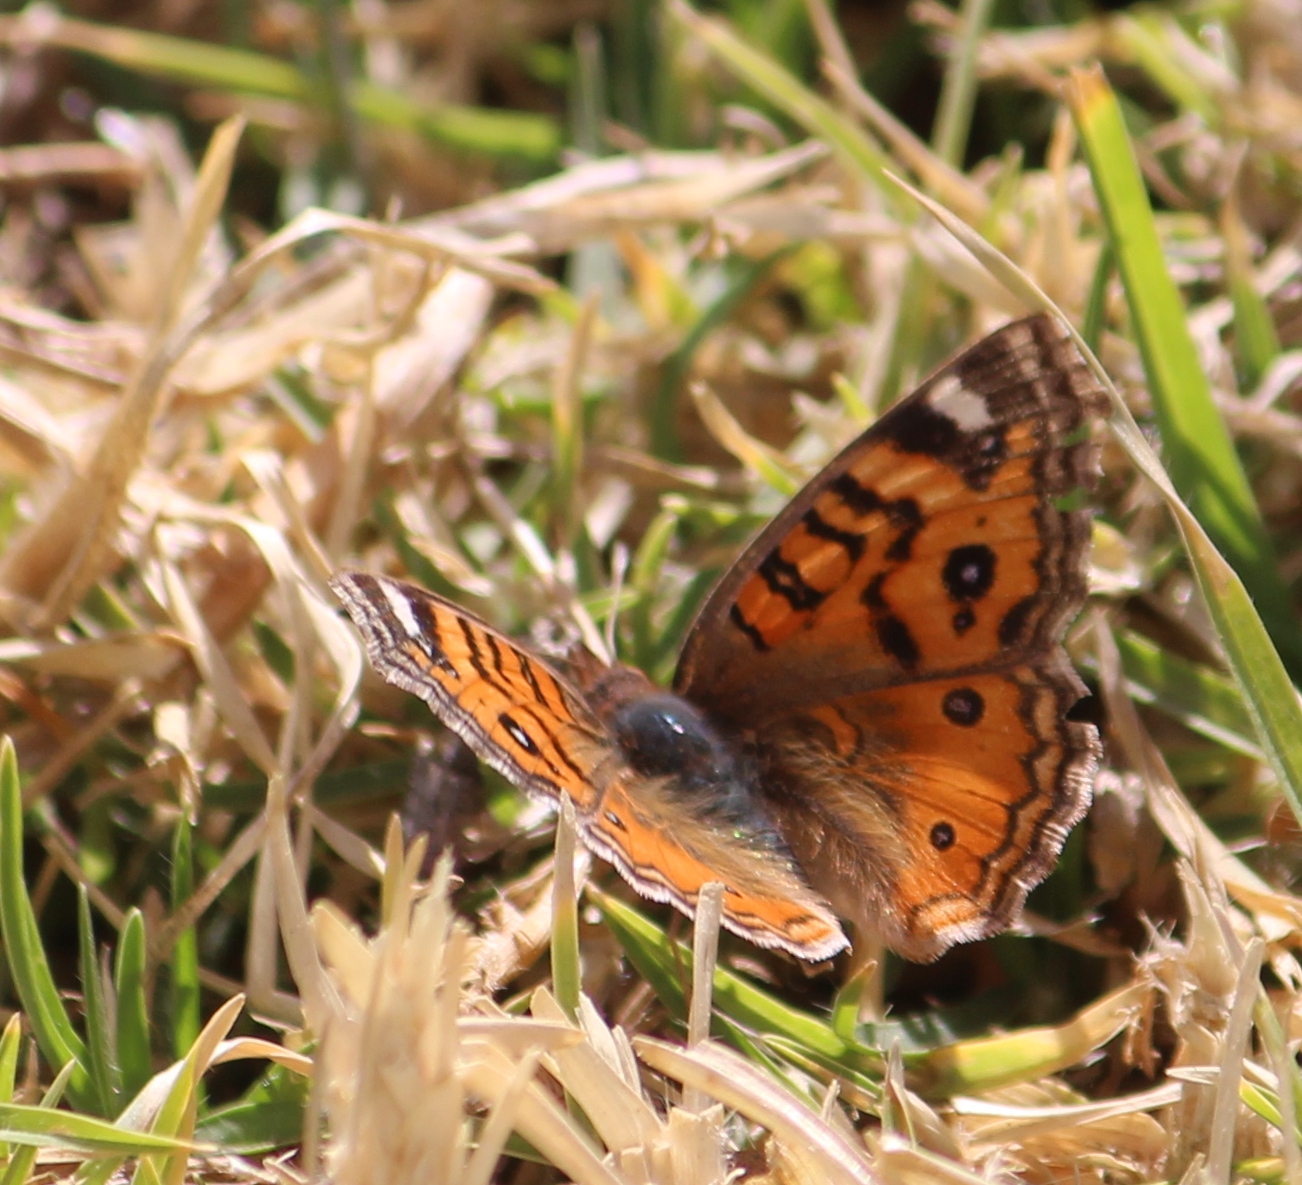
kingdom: Animalia
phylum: Arthropoda
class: Insecta
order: Lepidoptera
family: Nymphalidae
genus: Junonia
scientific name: Junonia vestina
